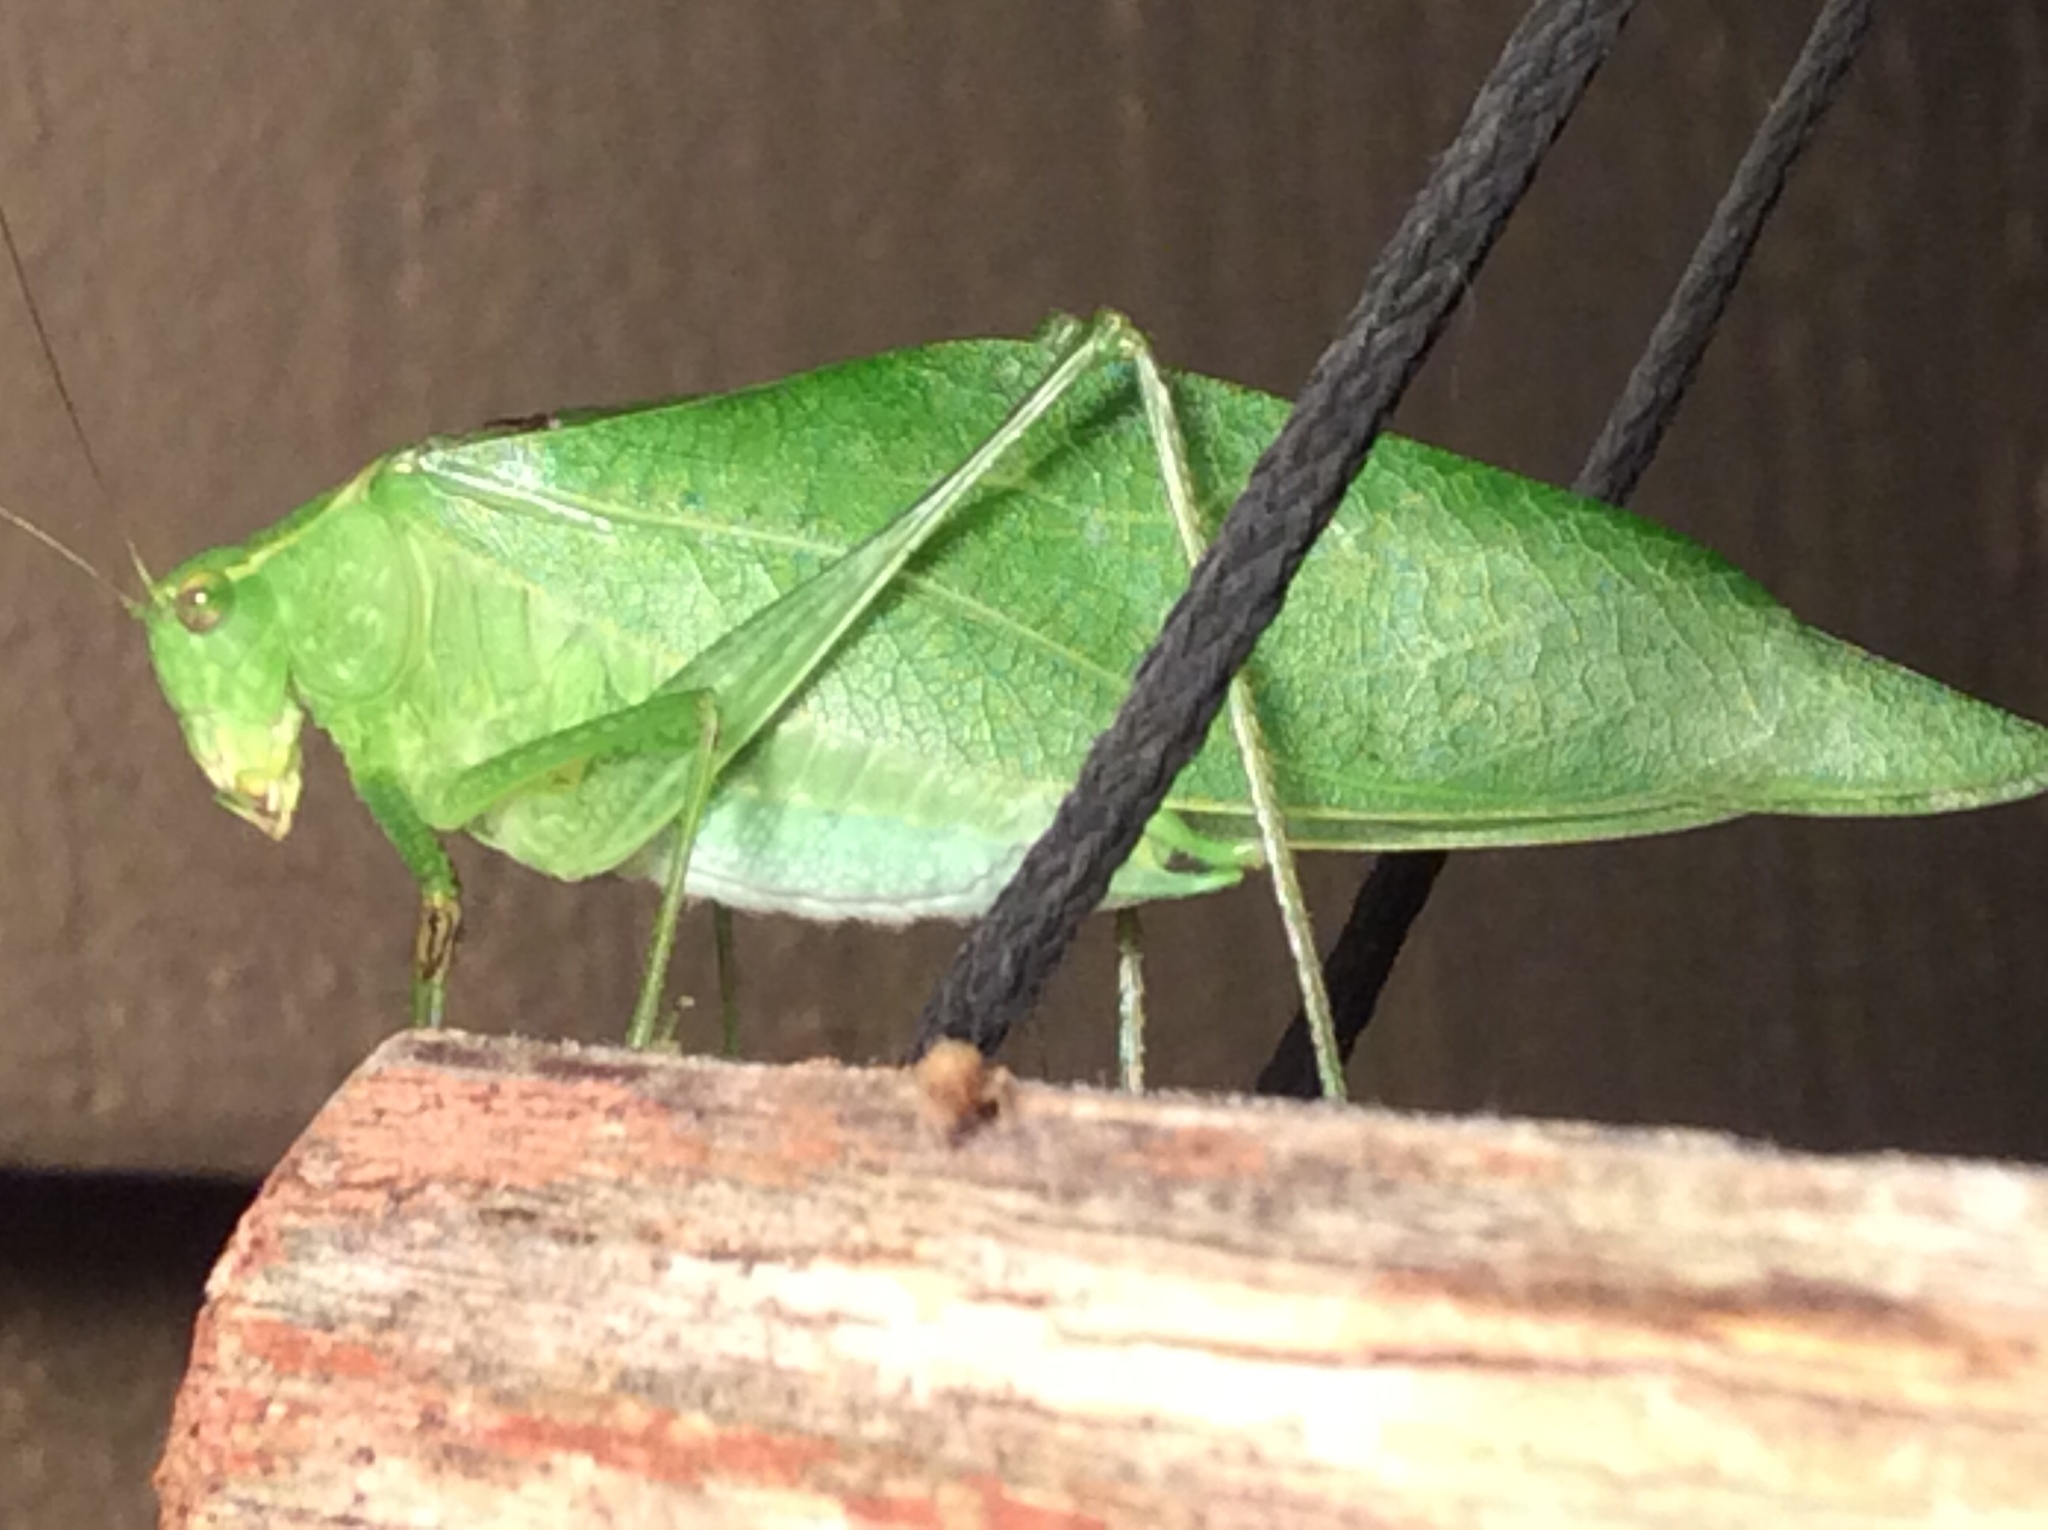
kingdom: Animalia
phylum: Arthropoda
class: Insecta
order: Orthoptera
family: Tettigoniidae
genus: Microcentrum
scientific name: Microcentrum retinerve
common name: Angular-winged katydid
